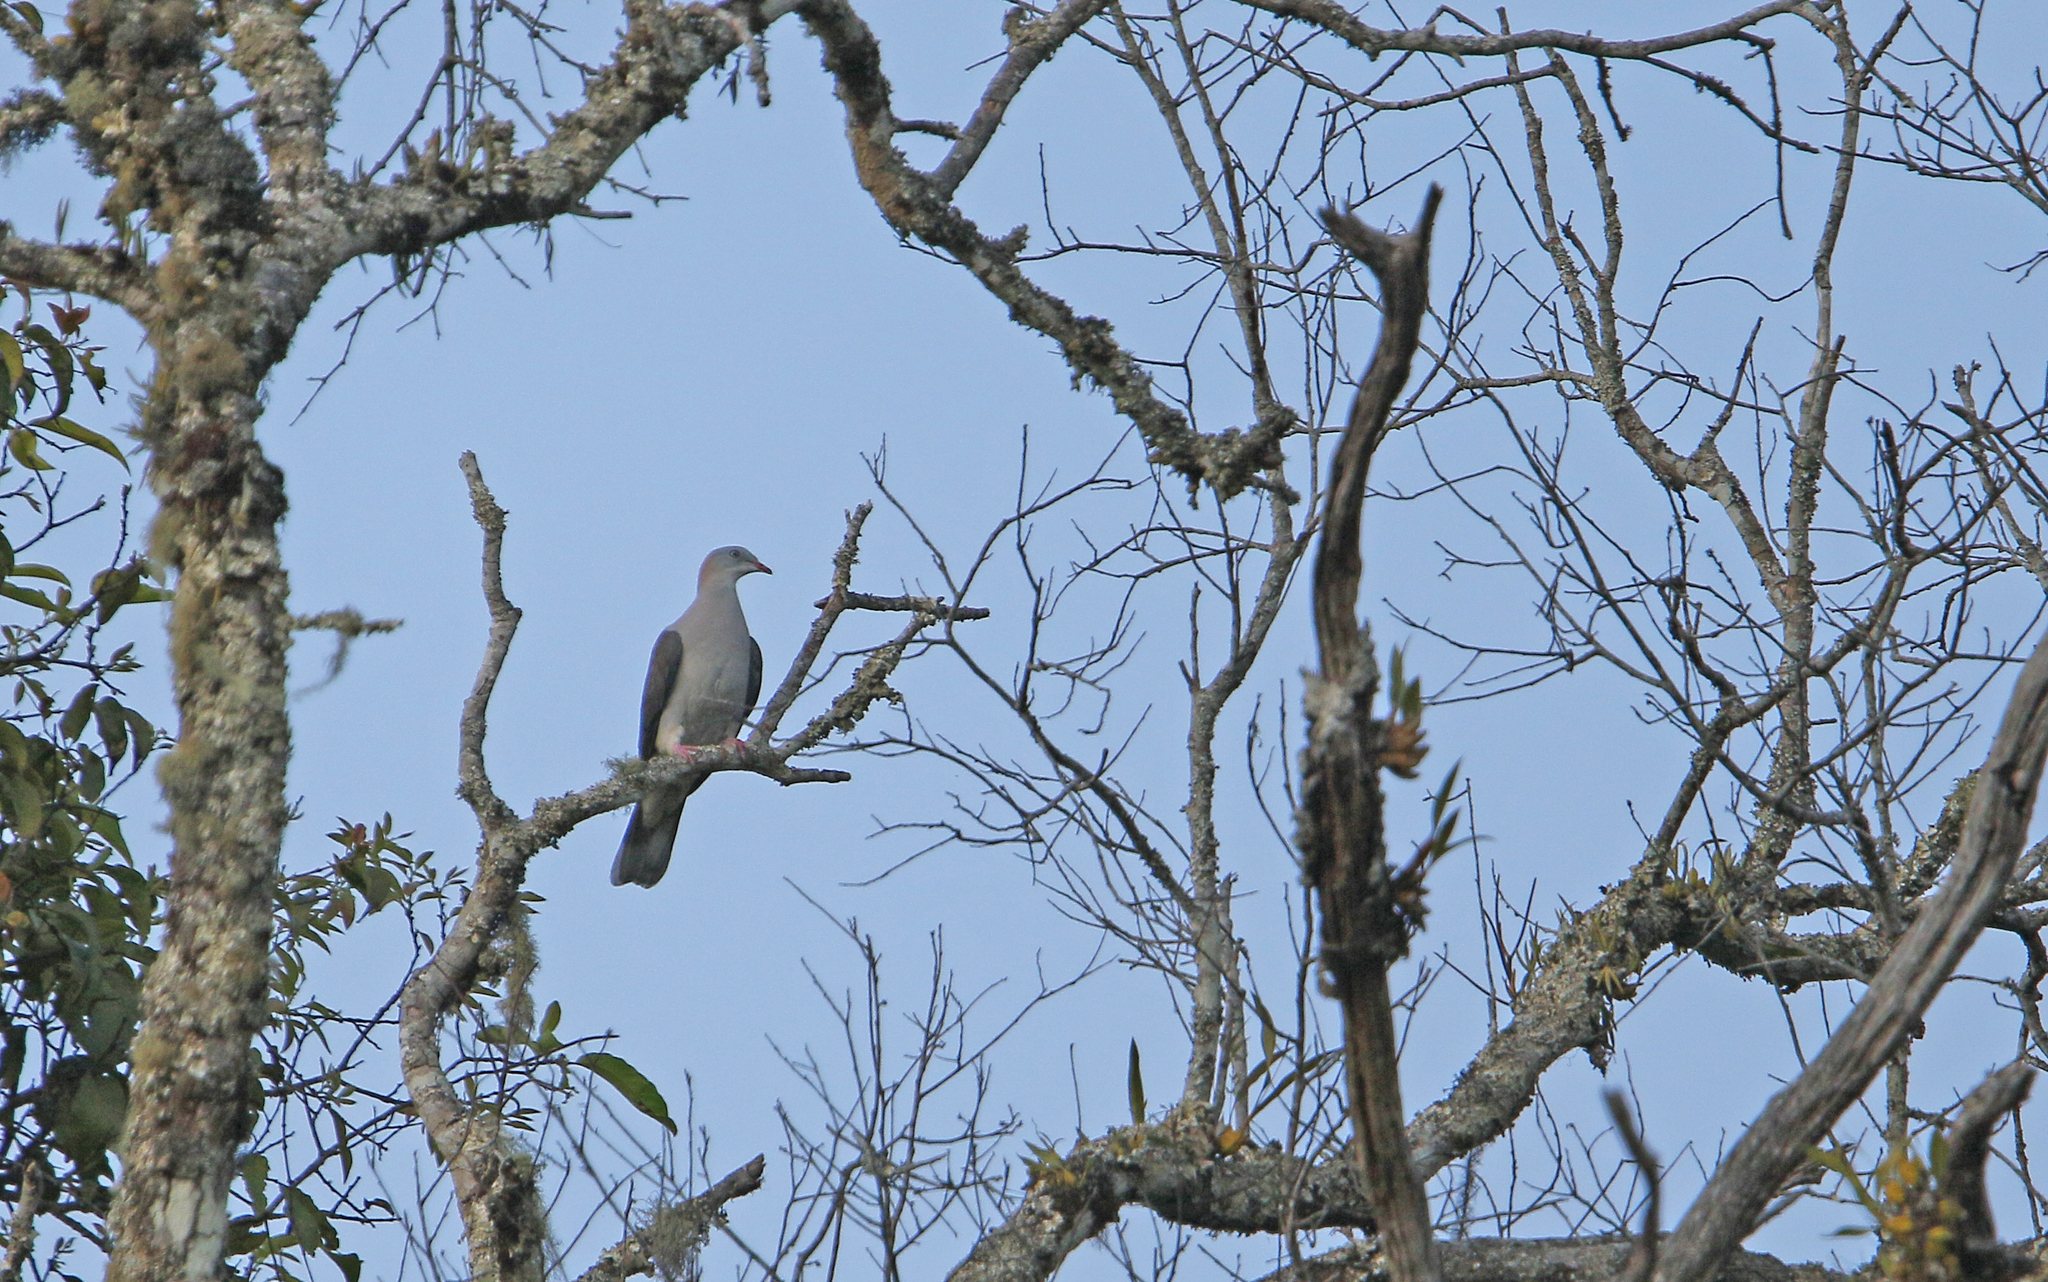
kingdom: Animalia
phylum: Chordata
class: Aves
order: Columbiformes
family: Columbidae
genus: Ducula
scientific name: Ducula badia
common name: Mountain imperial pigeon
